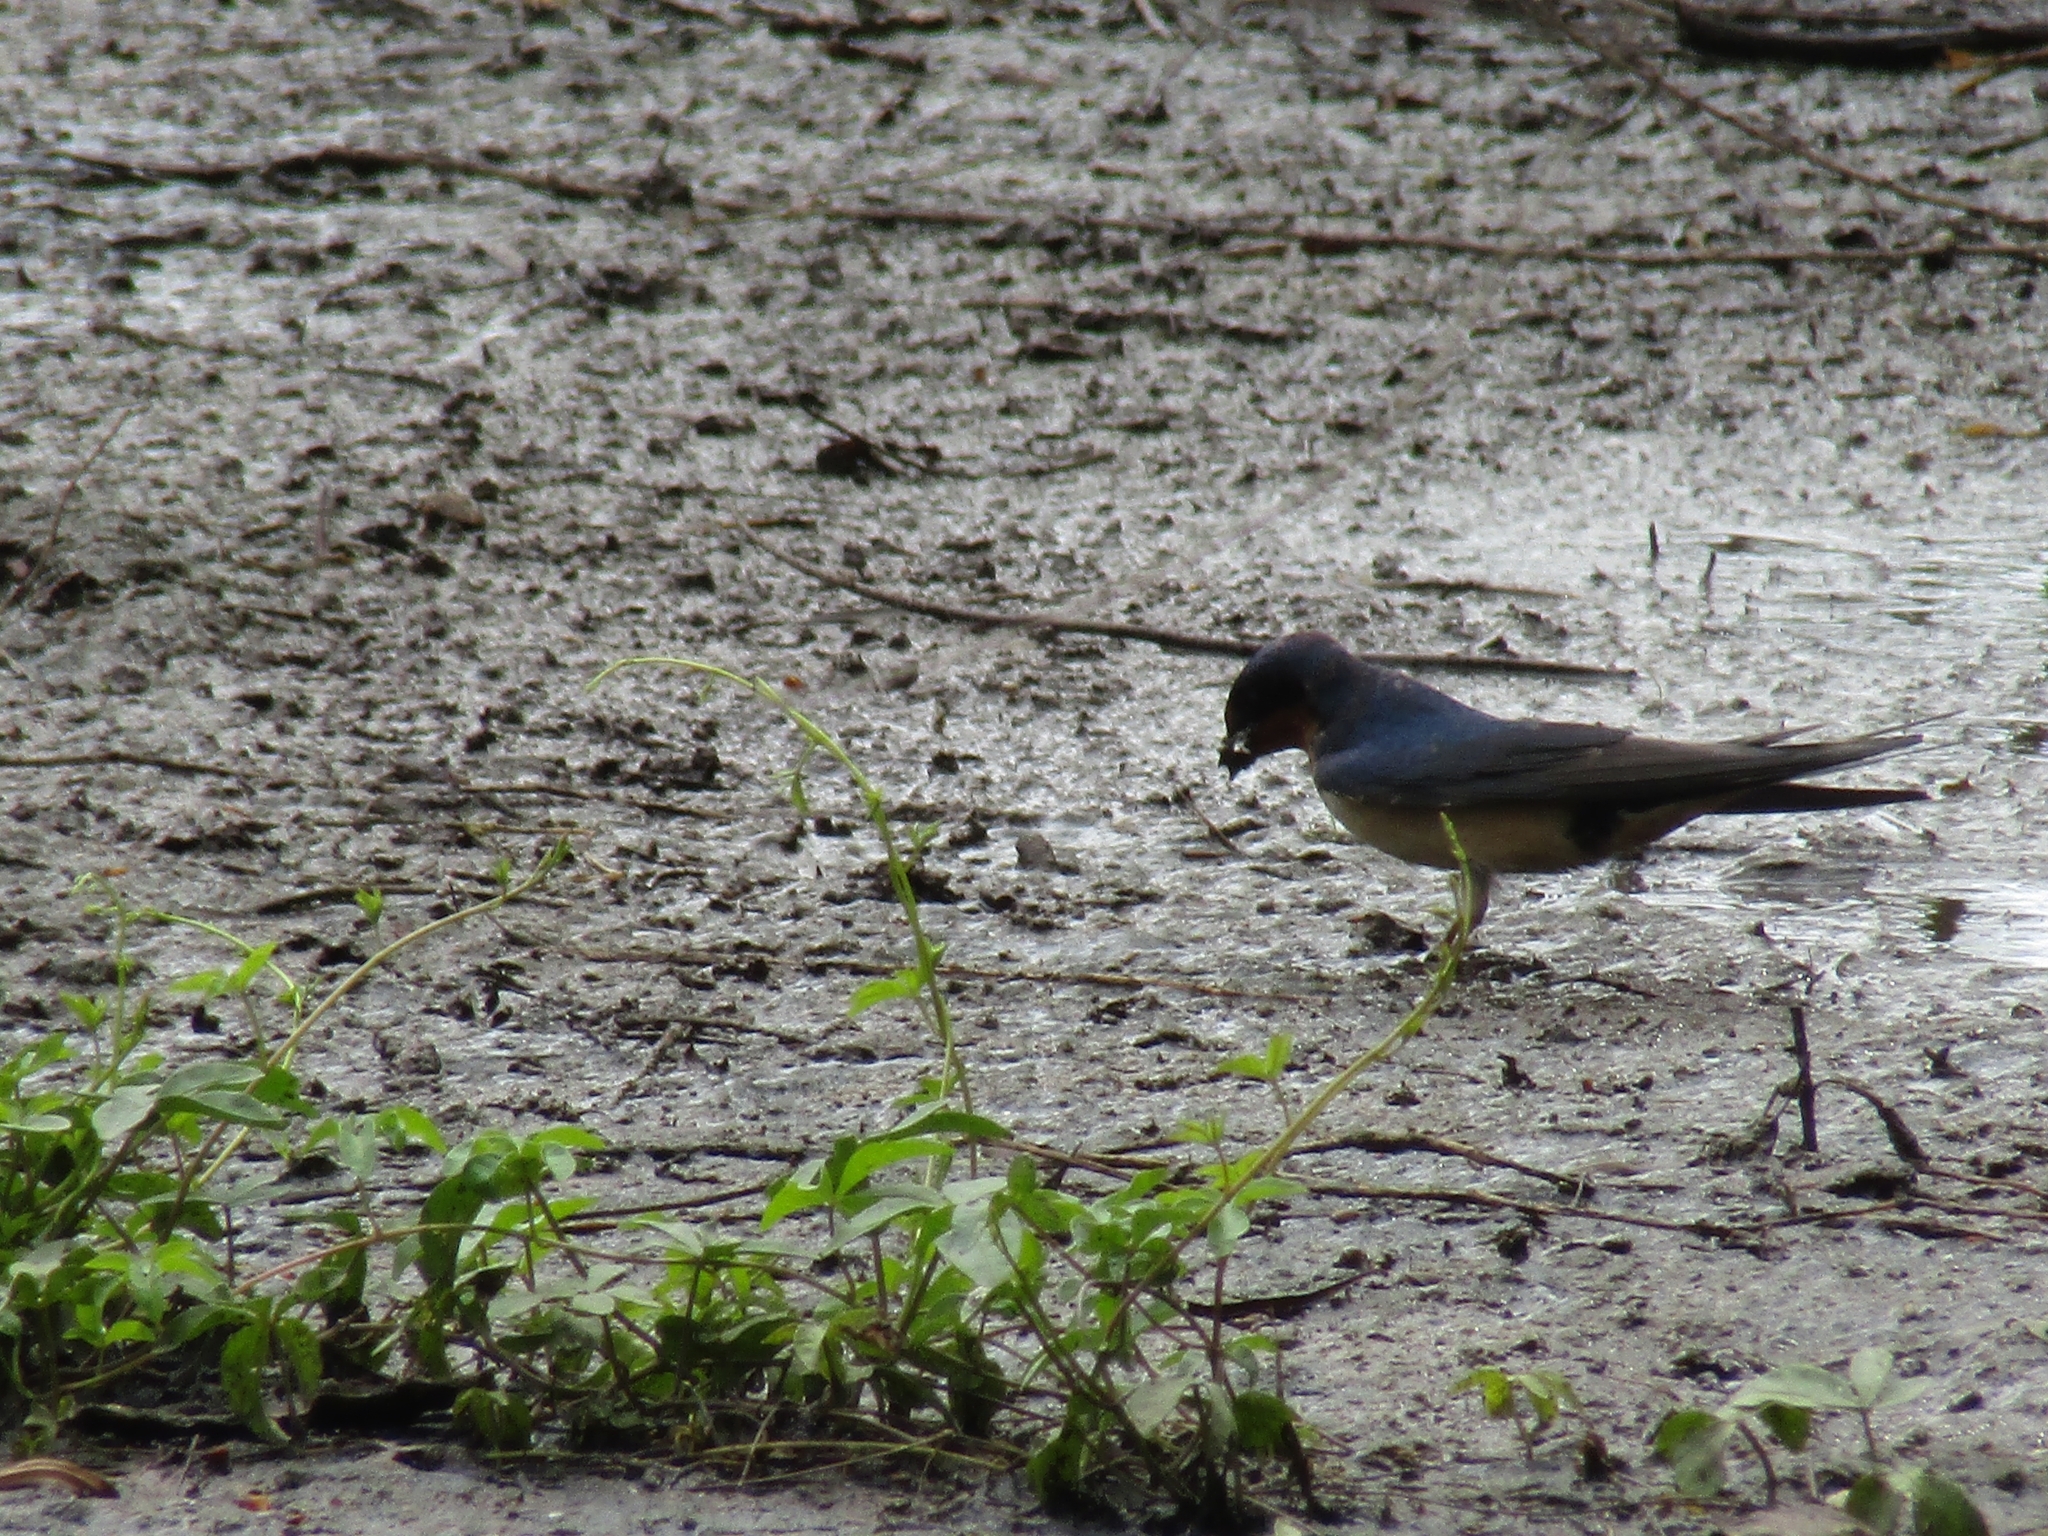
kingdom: Animalia
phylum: Chordata
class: Aves
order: Passeriformes
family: Hirundinidae
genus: Hirundo
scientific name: Hirundo rustica
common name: Barn swallow
